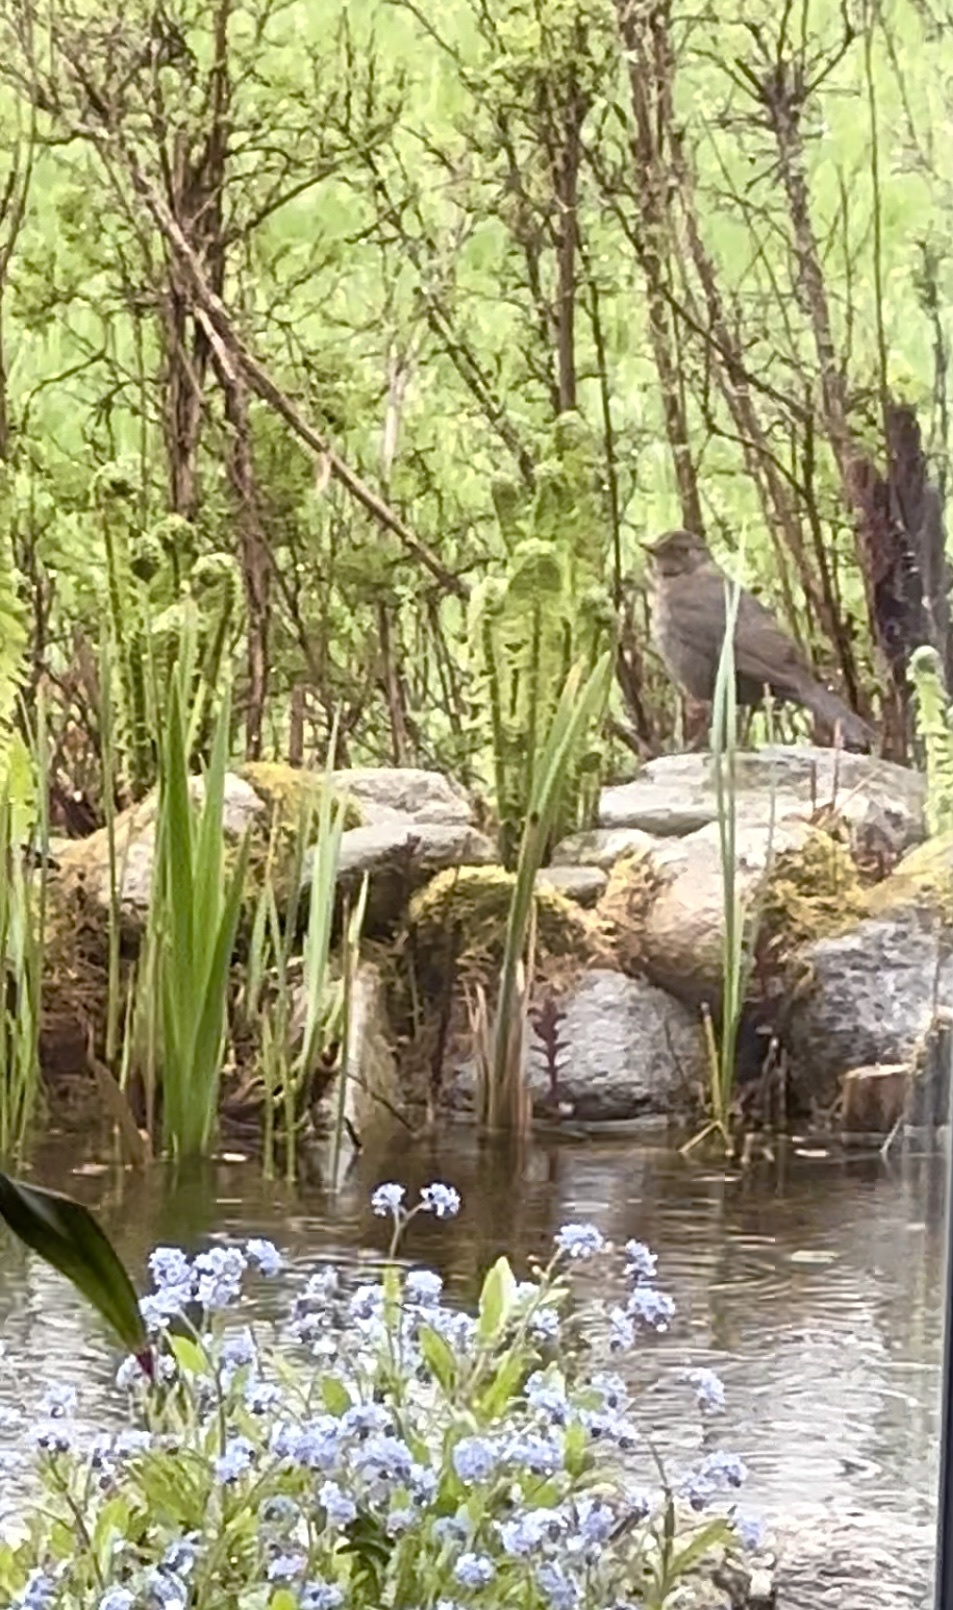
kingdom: Animalia
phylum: Chordata
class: Aves
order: Passeriformes
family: Turdidae
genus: Turdus
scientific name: Turdus merula
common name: Common blackbird
